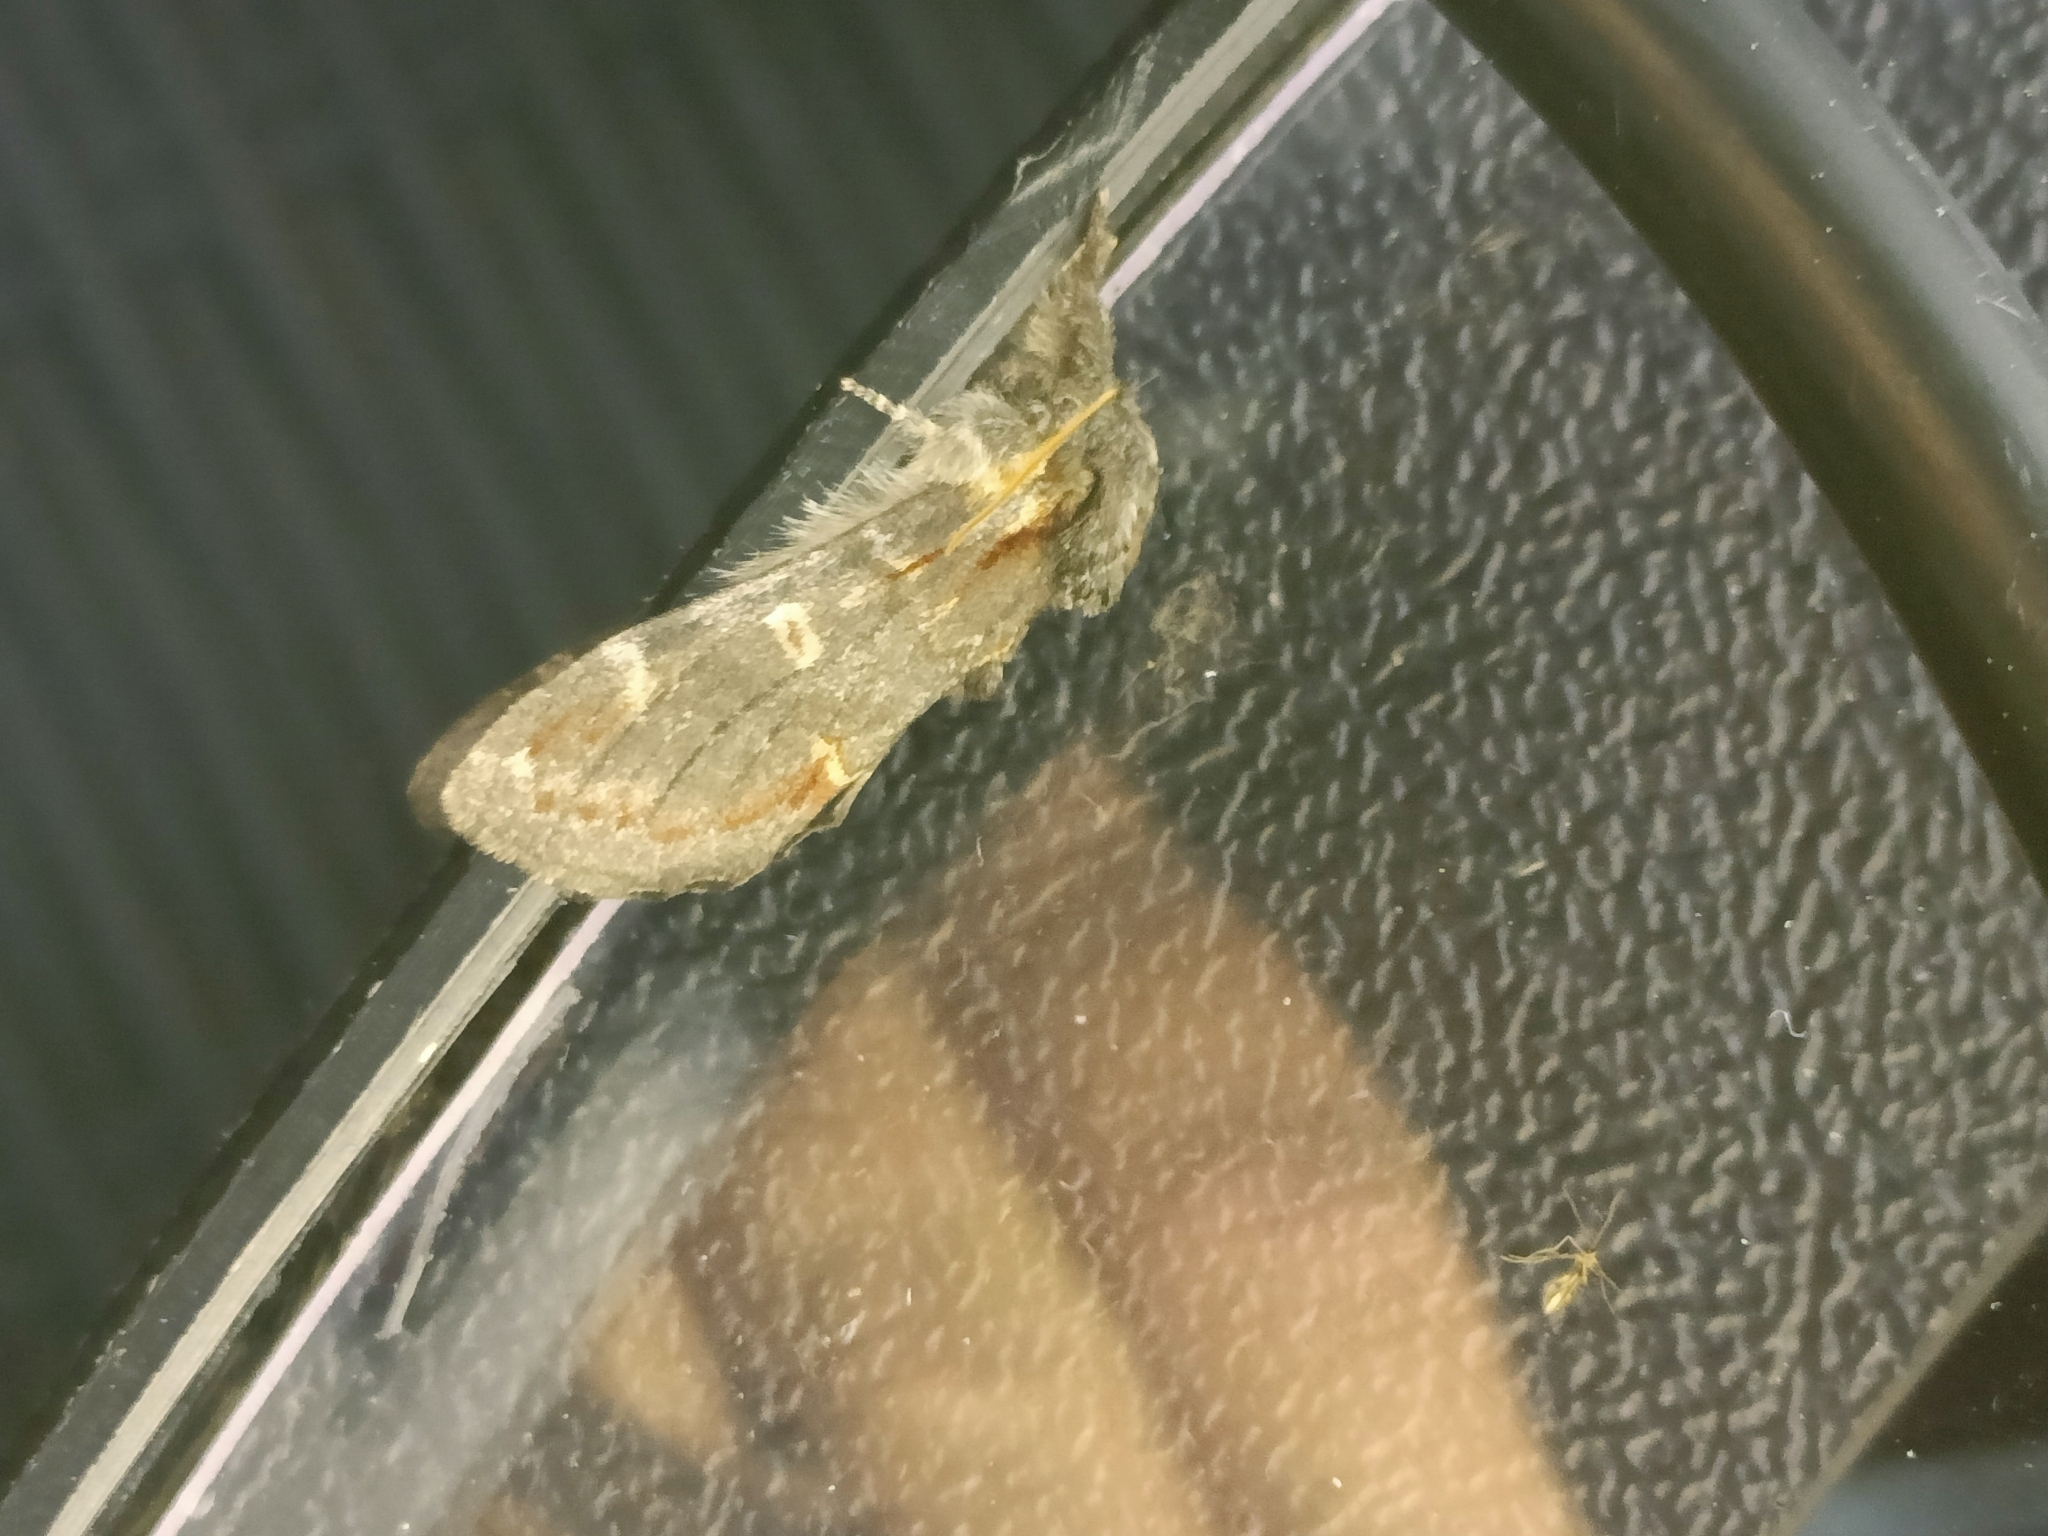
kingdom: Animalia
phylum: Arthropoda
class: Insecta
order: Lepidoptera
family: Notodontidae
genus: Notodonta
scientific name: Notodonta dromedarius
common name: Iron prominent
